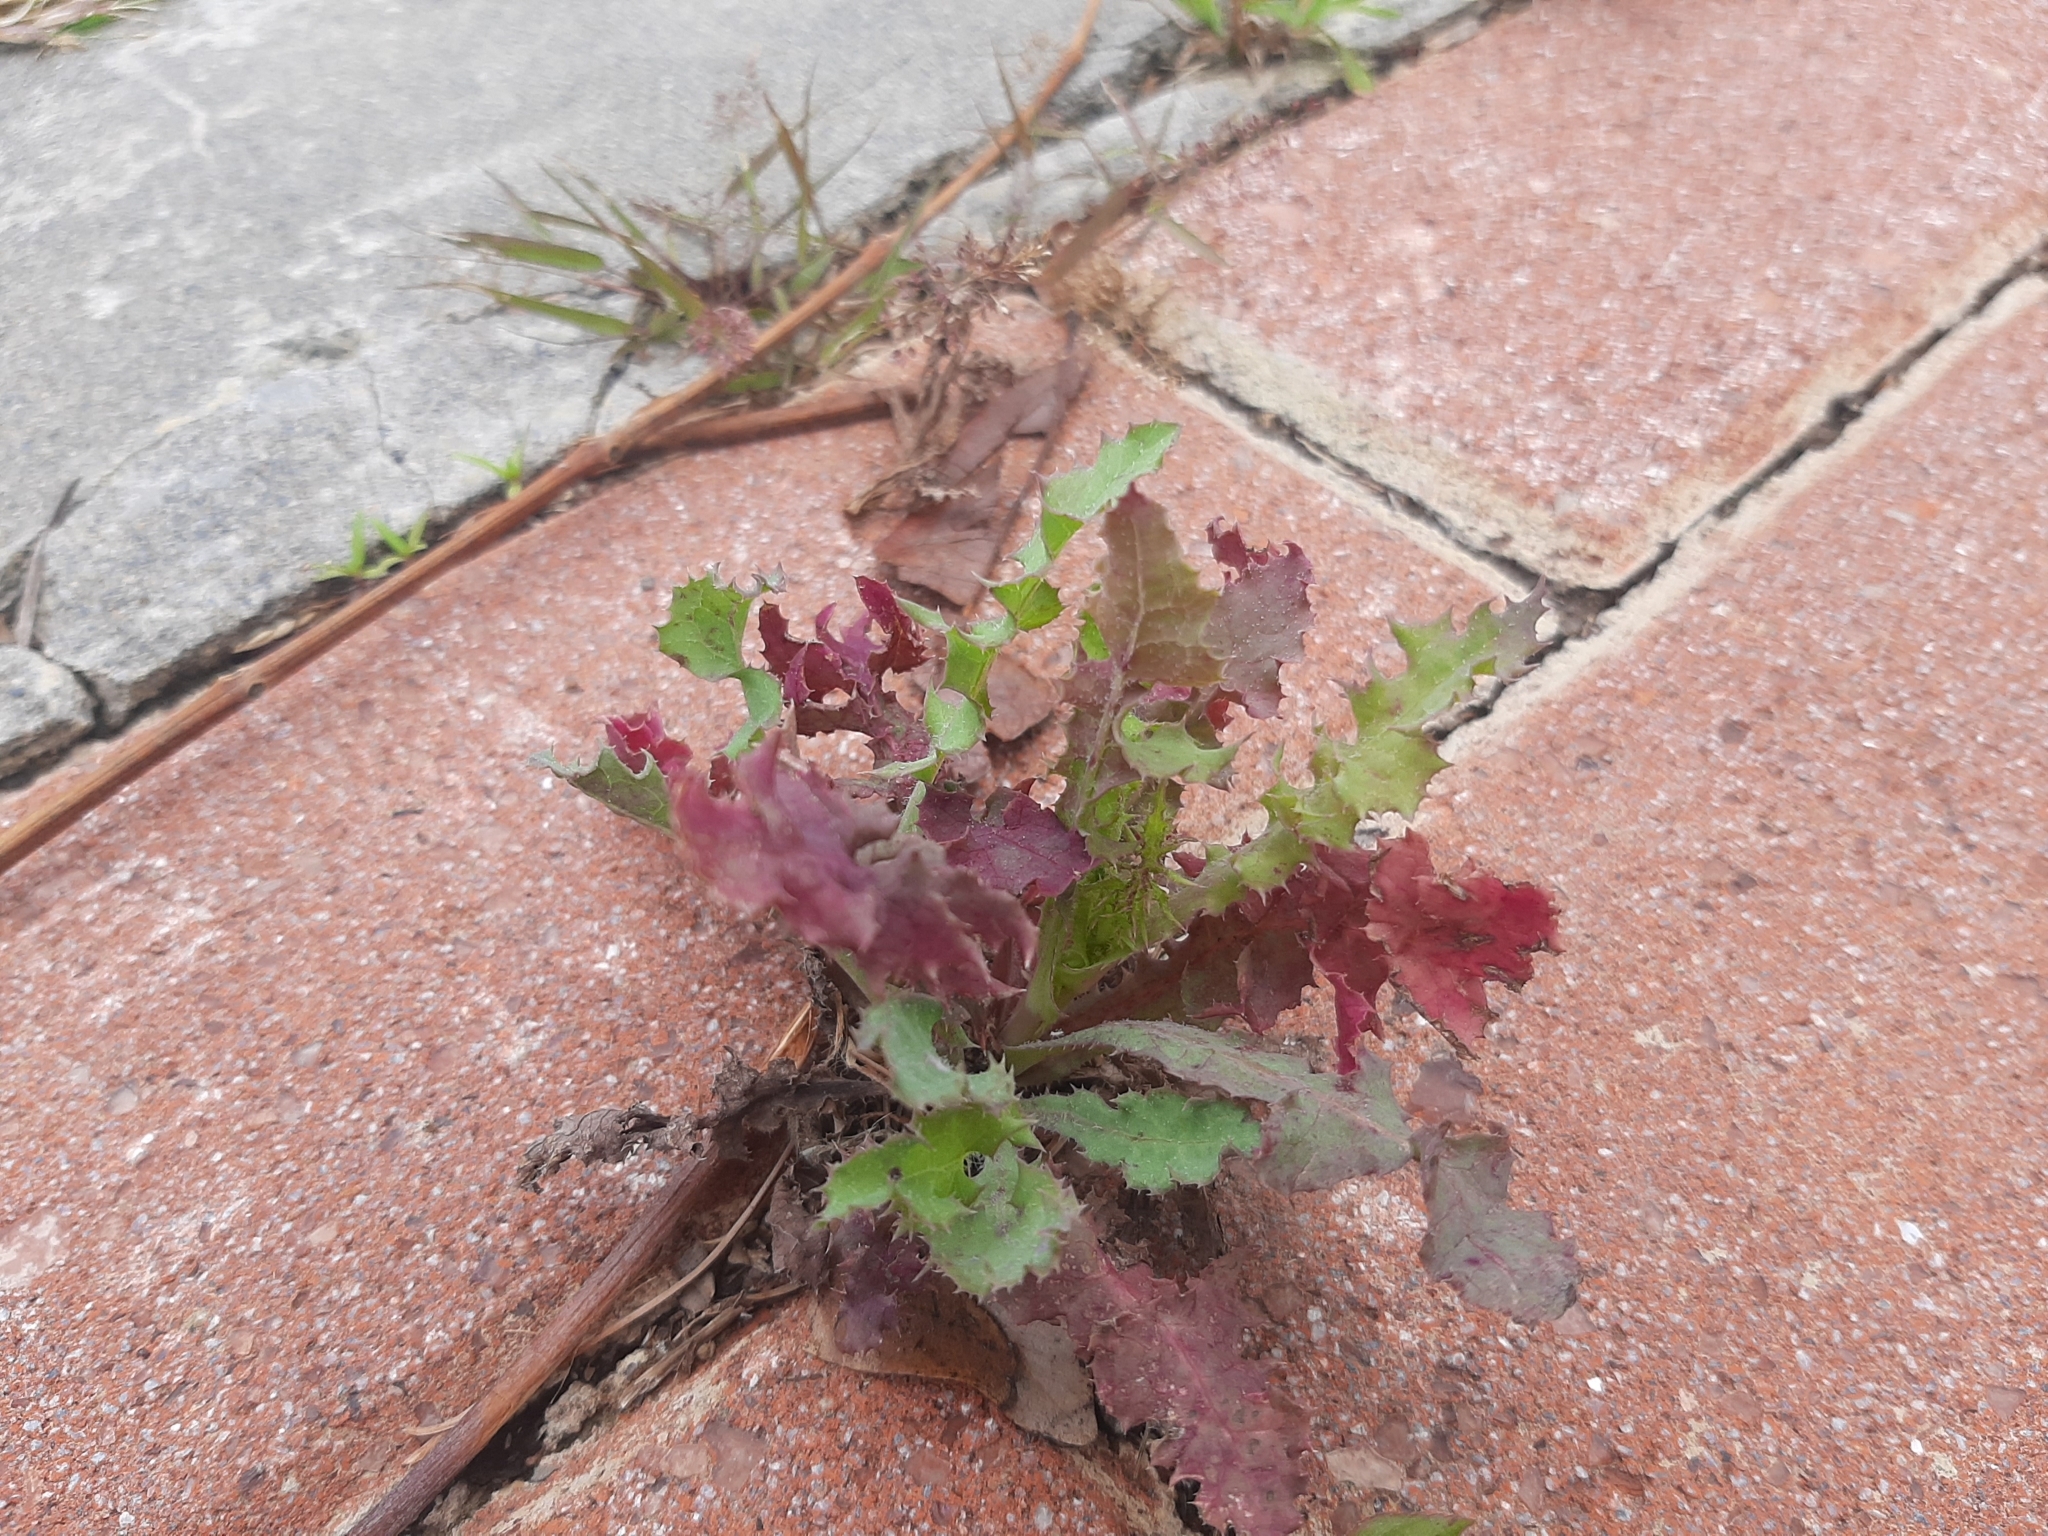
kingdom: Plantae
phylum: Tracheophyta
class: Magnoliopsida
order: Asterales
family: Asteraceae
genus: Sonchus
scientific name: Sonchus oleraceus
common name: Common sowthistle
